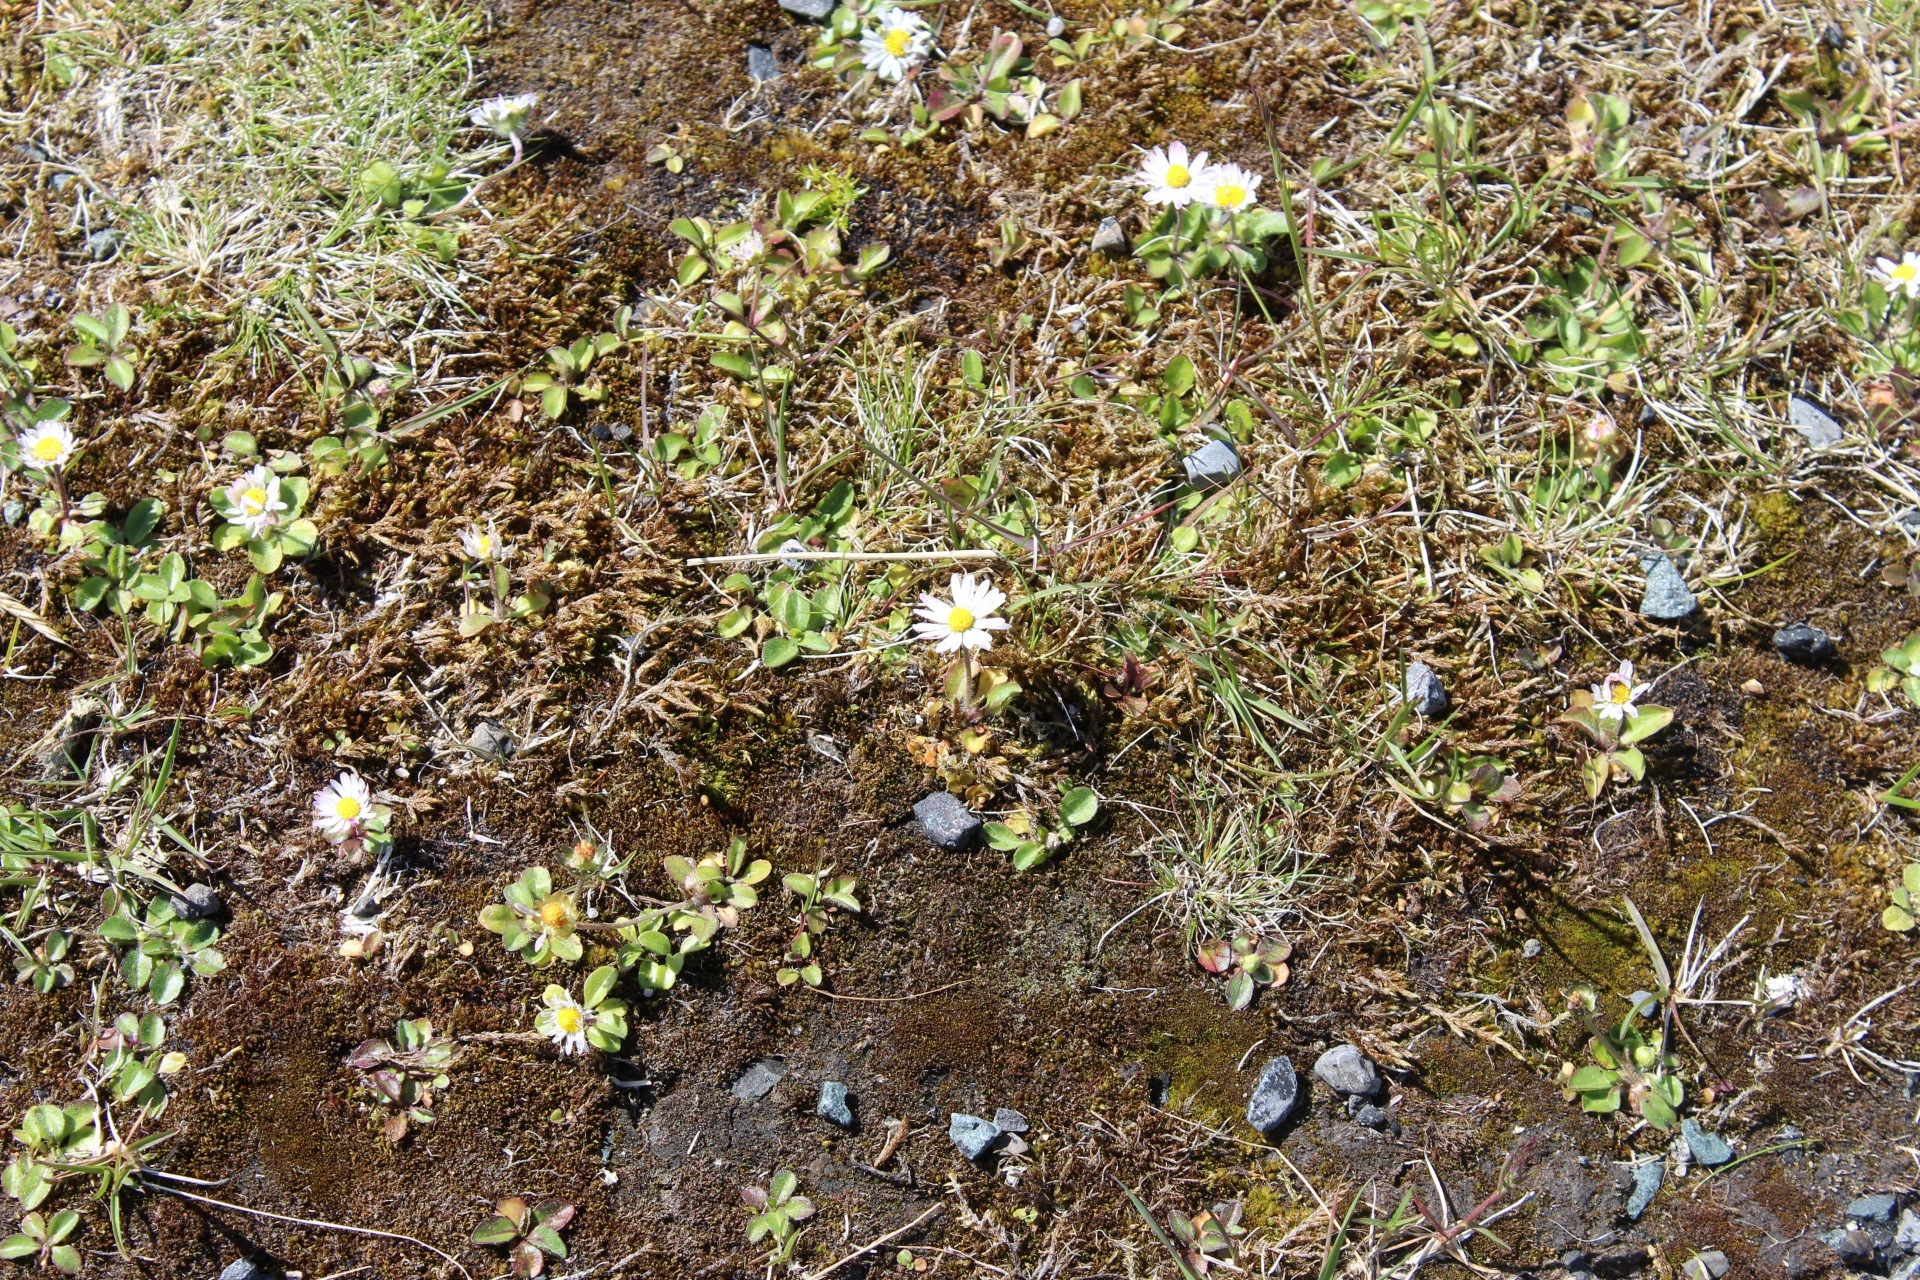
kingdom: Plantae
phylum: Tracheophyta
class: Magnoliopsida
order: Asterales
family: Asteraceae
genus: Bellis
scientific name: Bellis perennis
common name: Lawndaisy
